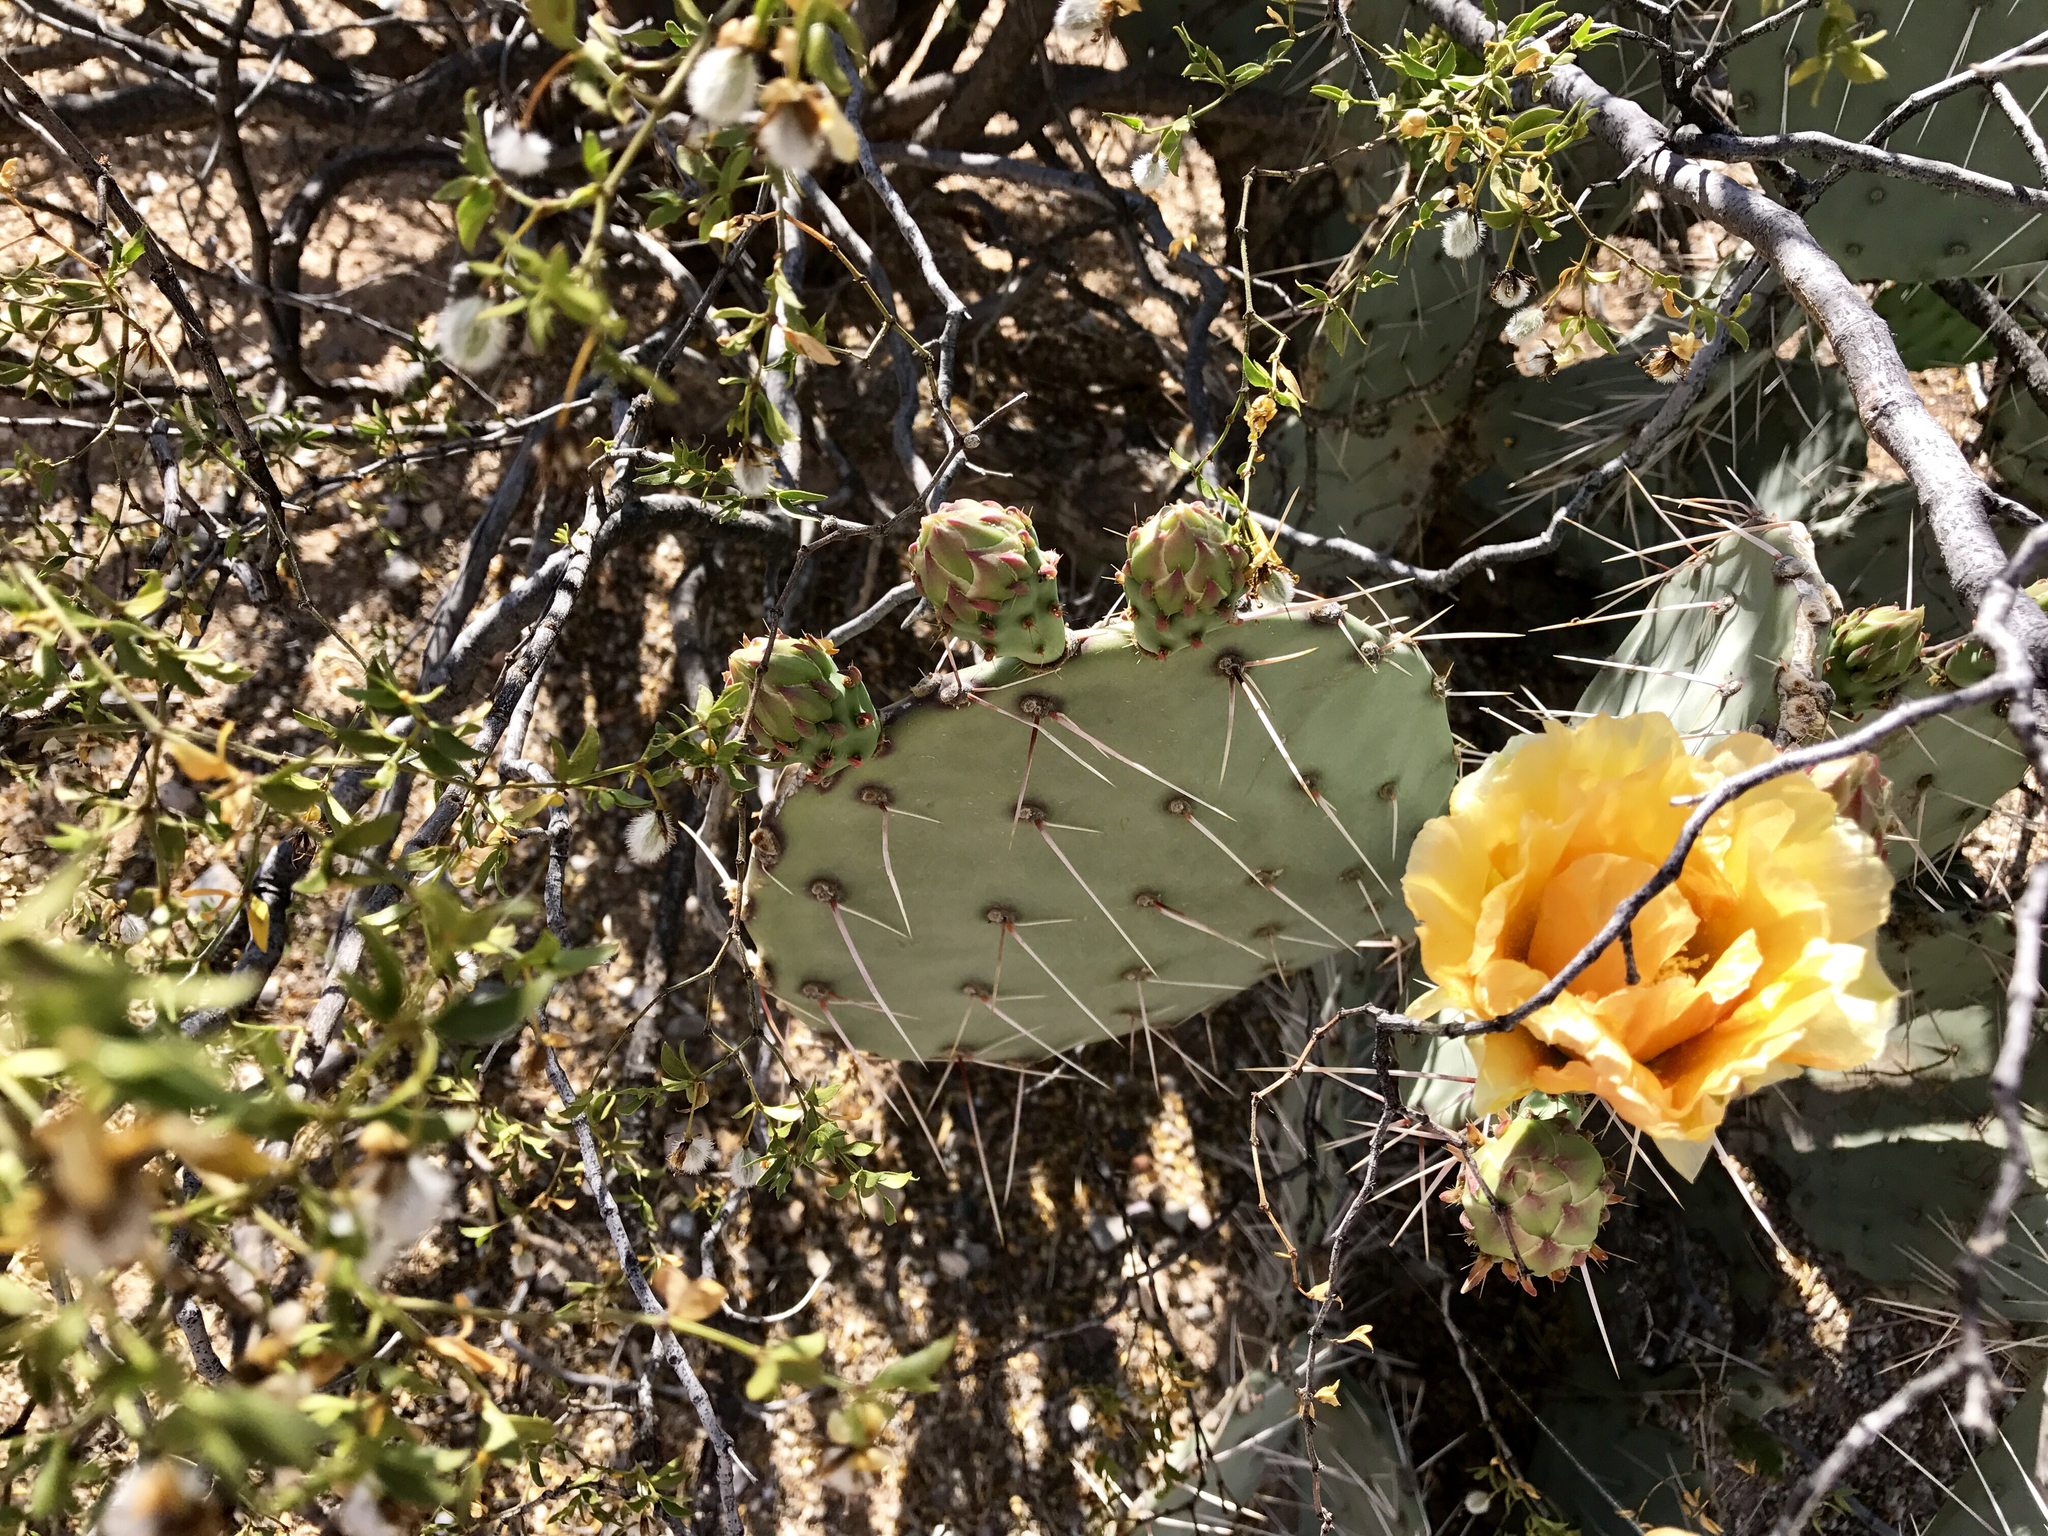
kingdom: Plantae
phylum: Tracheophyta
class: Magnoliopsida
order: Caryophyllales
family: Cactaceae
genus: Opuntia
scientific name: Opuntia engelmannii
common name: Cactus-apple
